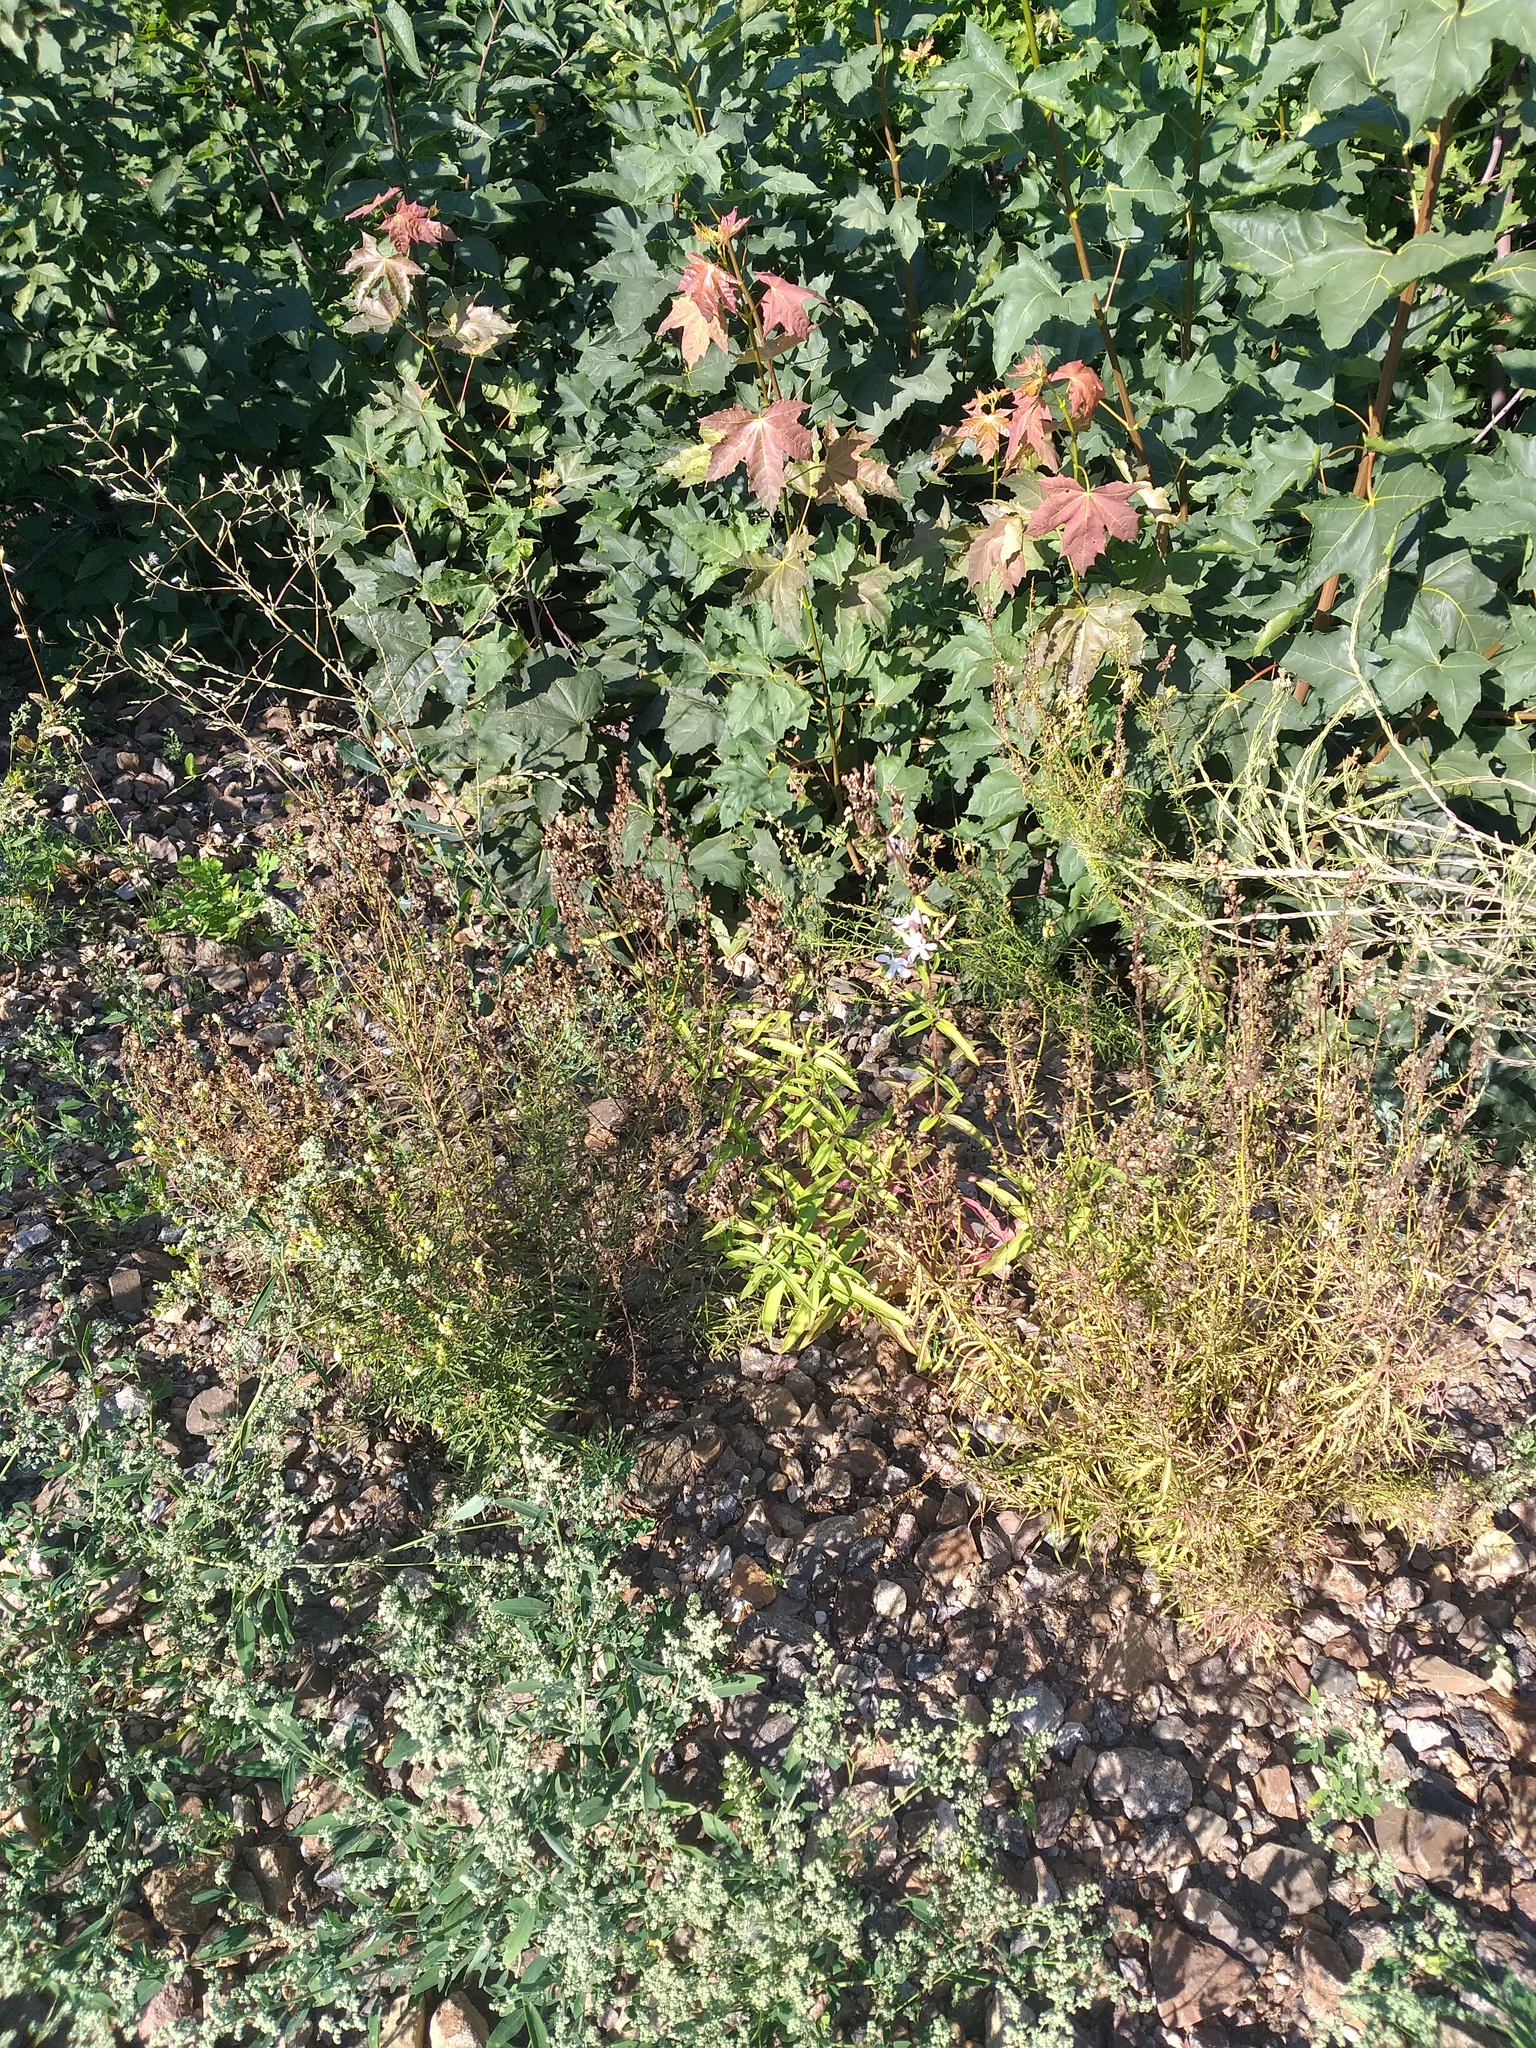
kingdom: Plantae
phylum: Tracheophyta
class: Magnoliopsida
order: Caryophyllales
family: Caryophyllaceae
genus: Saponaria
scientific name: Saponaria officinalis
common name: Soapwort
